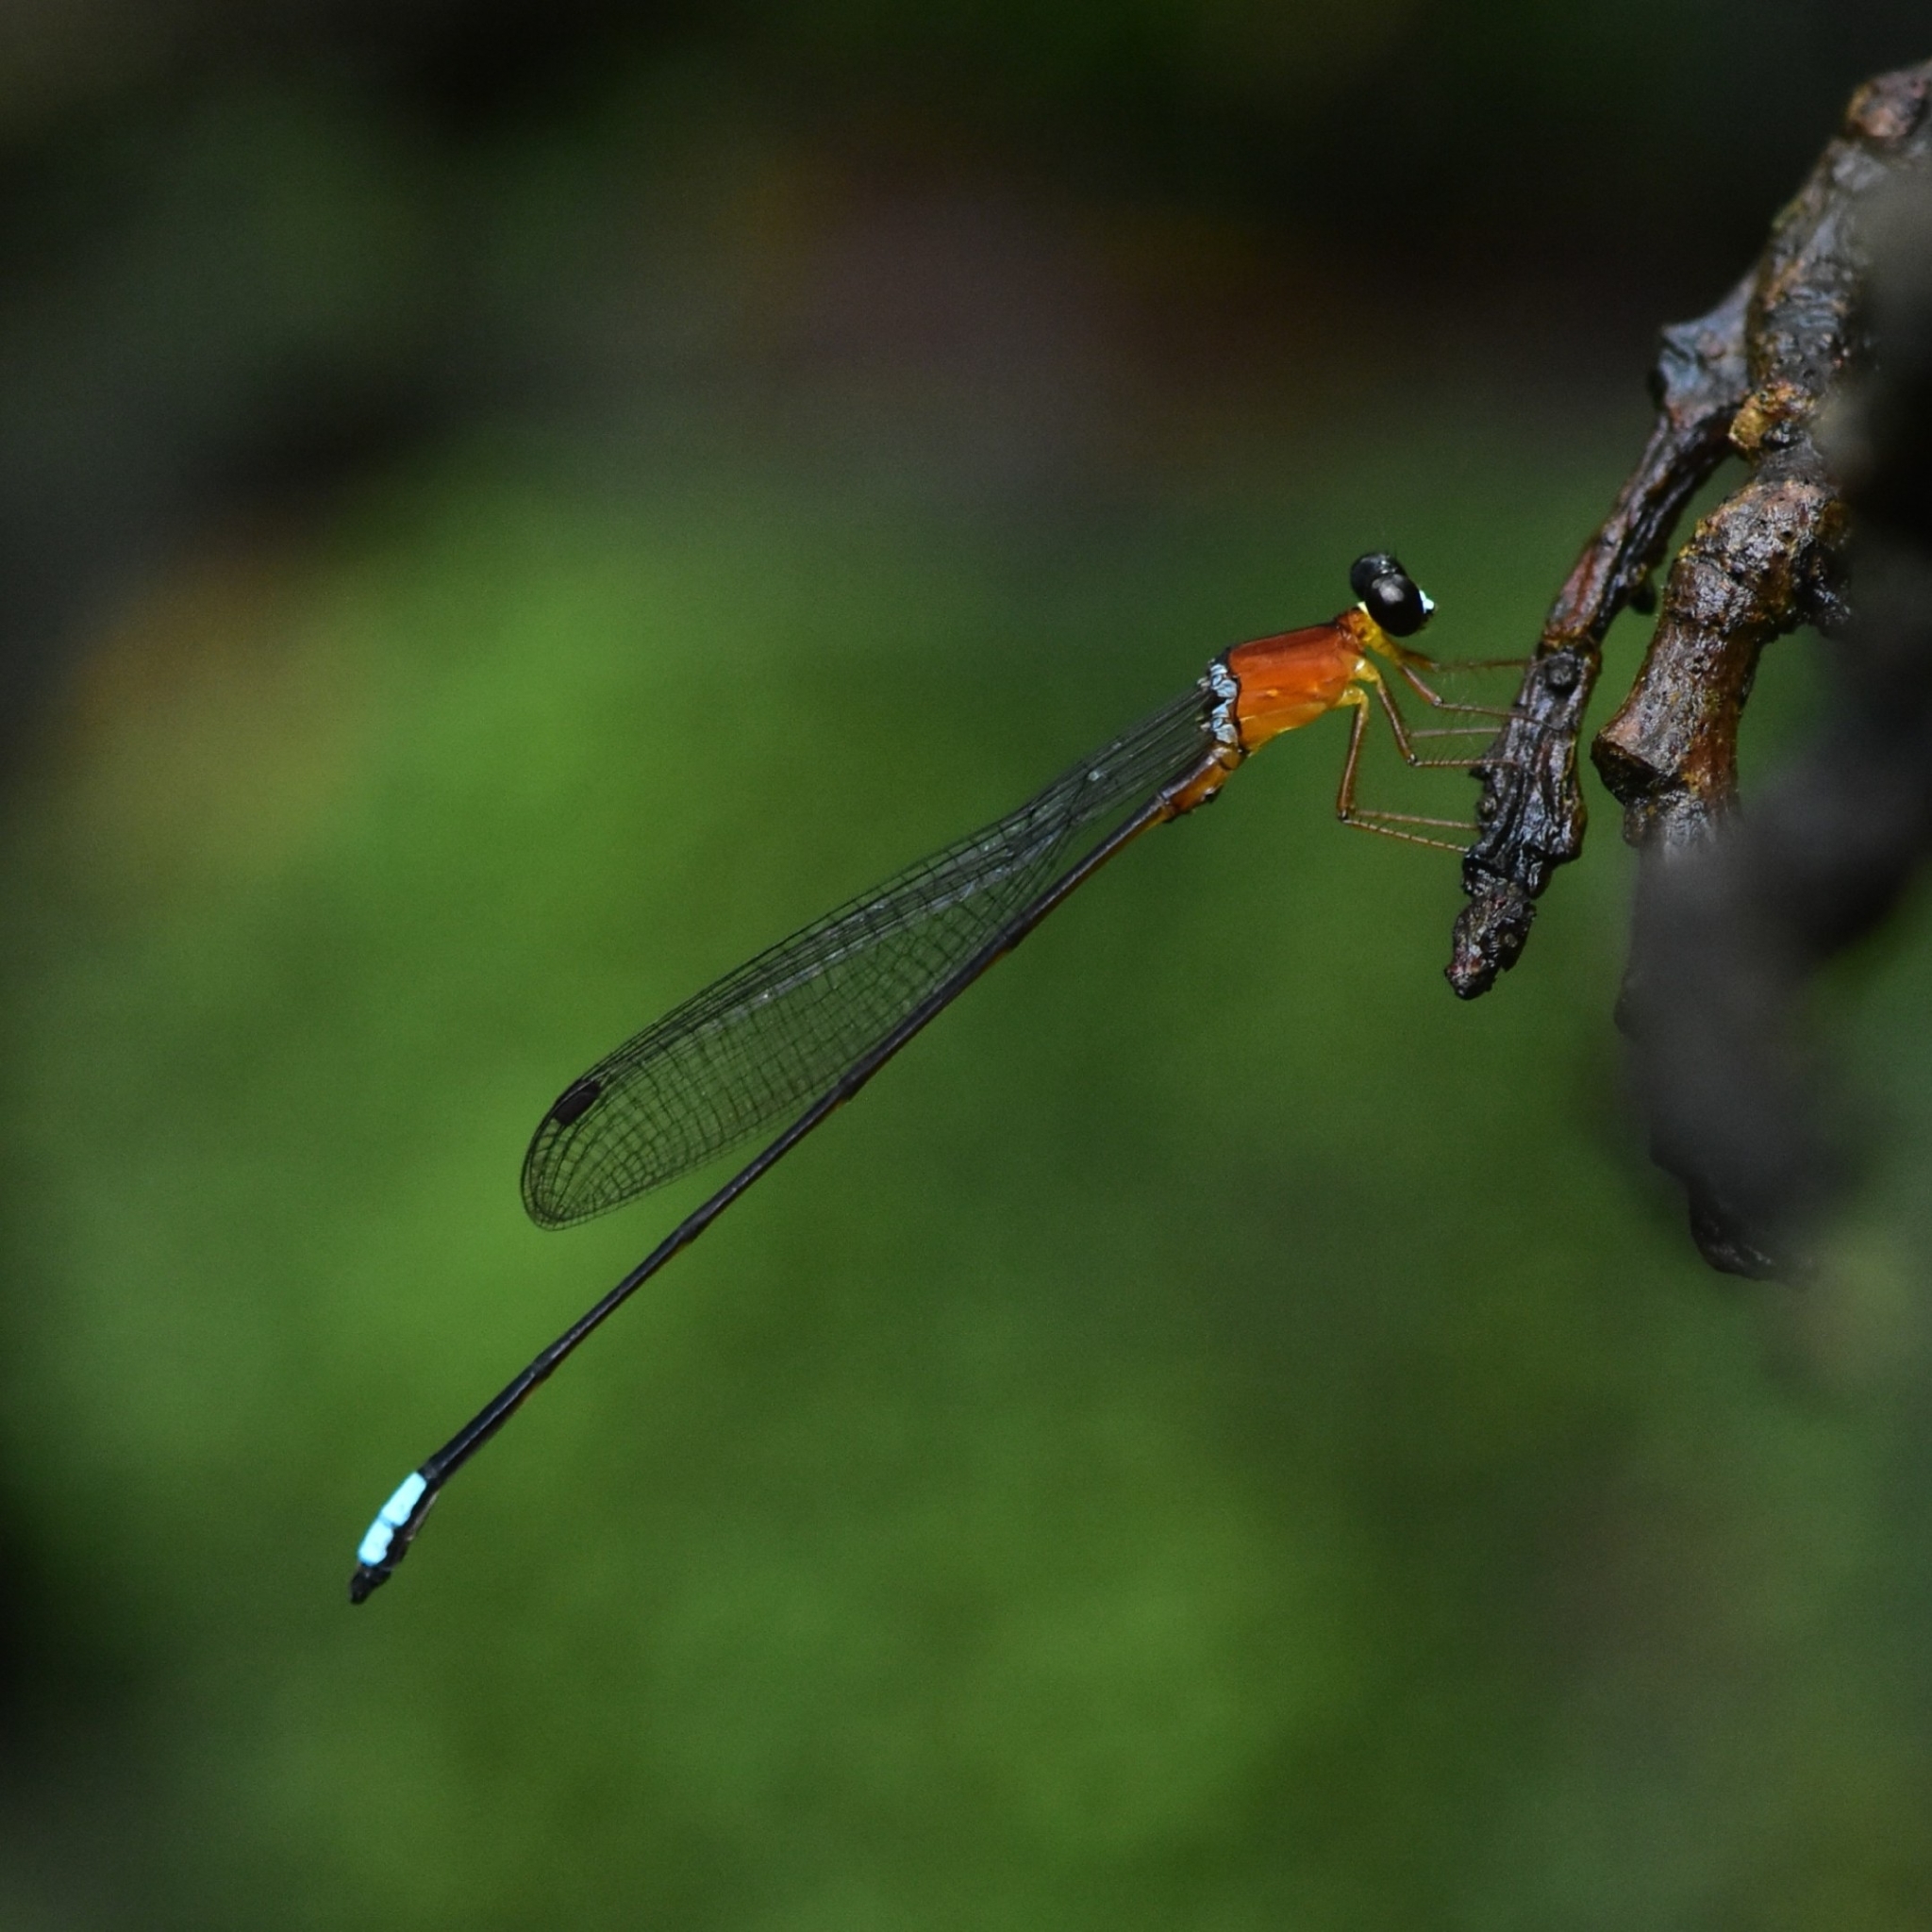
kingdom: Animalia
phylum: Arthropoda
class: Insecta
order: Odonata
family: Platystictidae
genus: Indosticta
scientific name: Indosticta deccanensis
